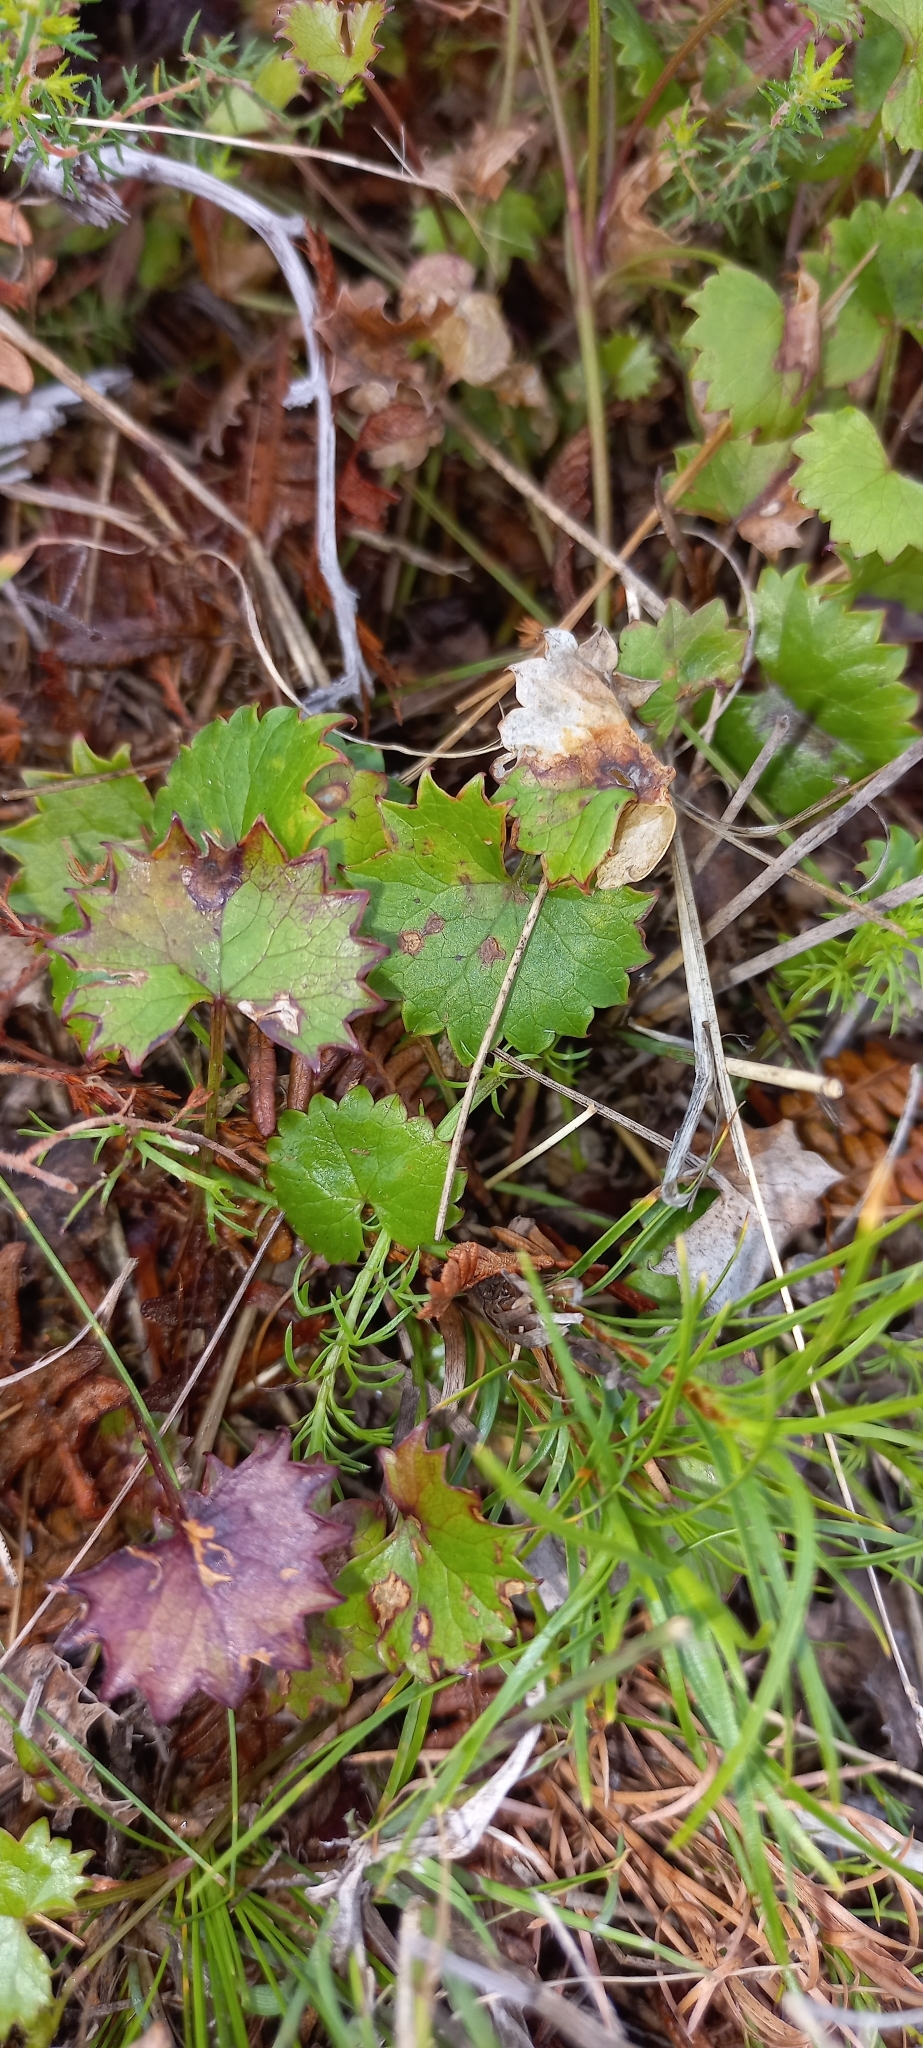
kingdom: Plantae
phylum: Tracheophyta
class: Magnoliopsida
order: Apiales
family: Apiaceae
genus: Centella
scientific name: Centella callioda
